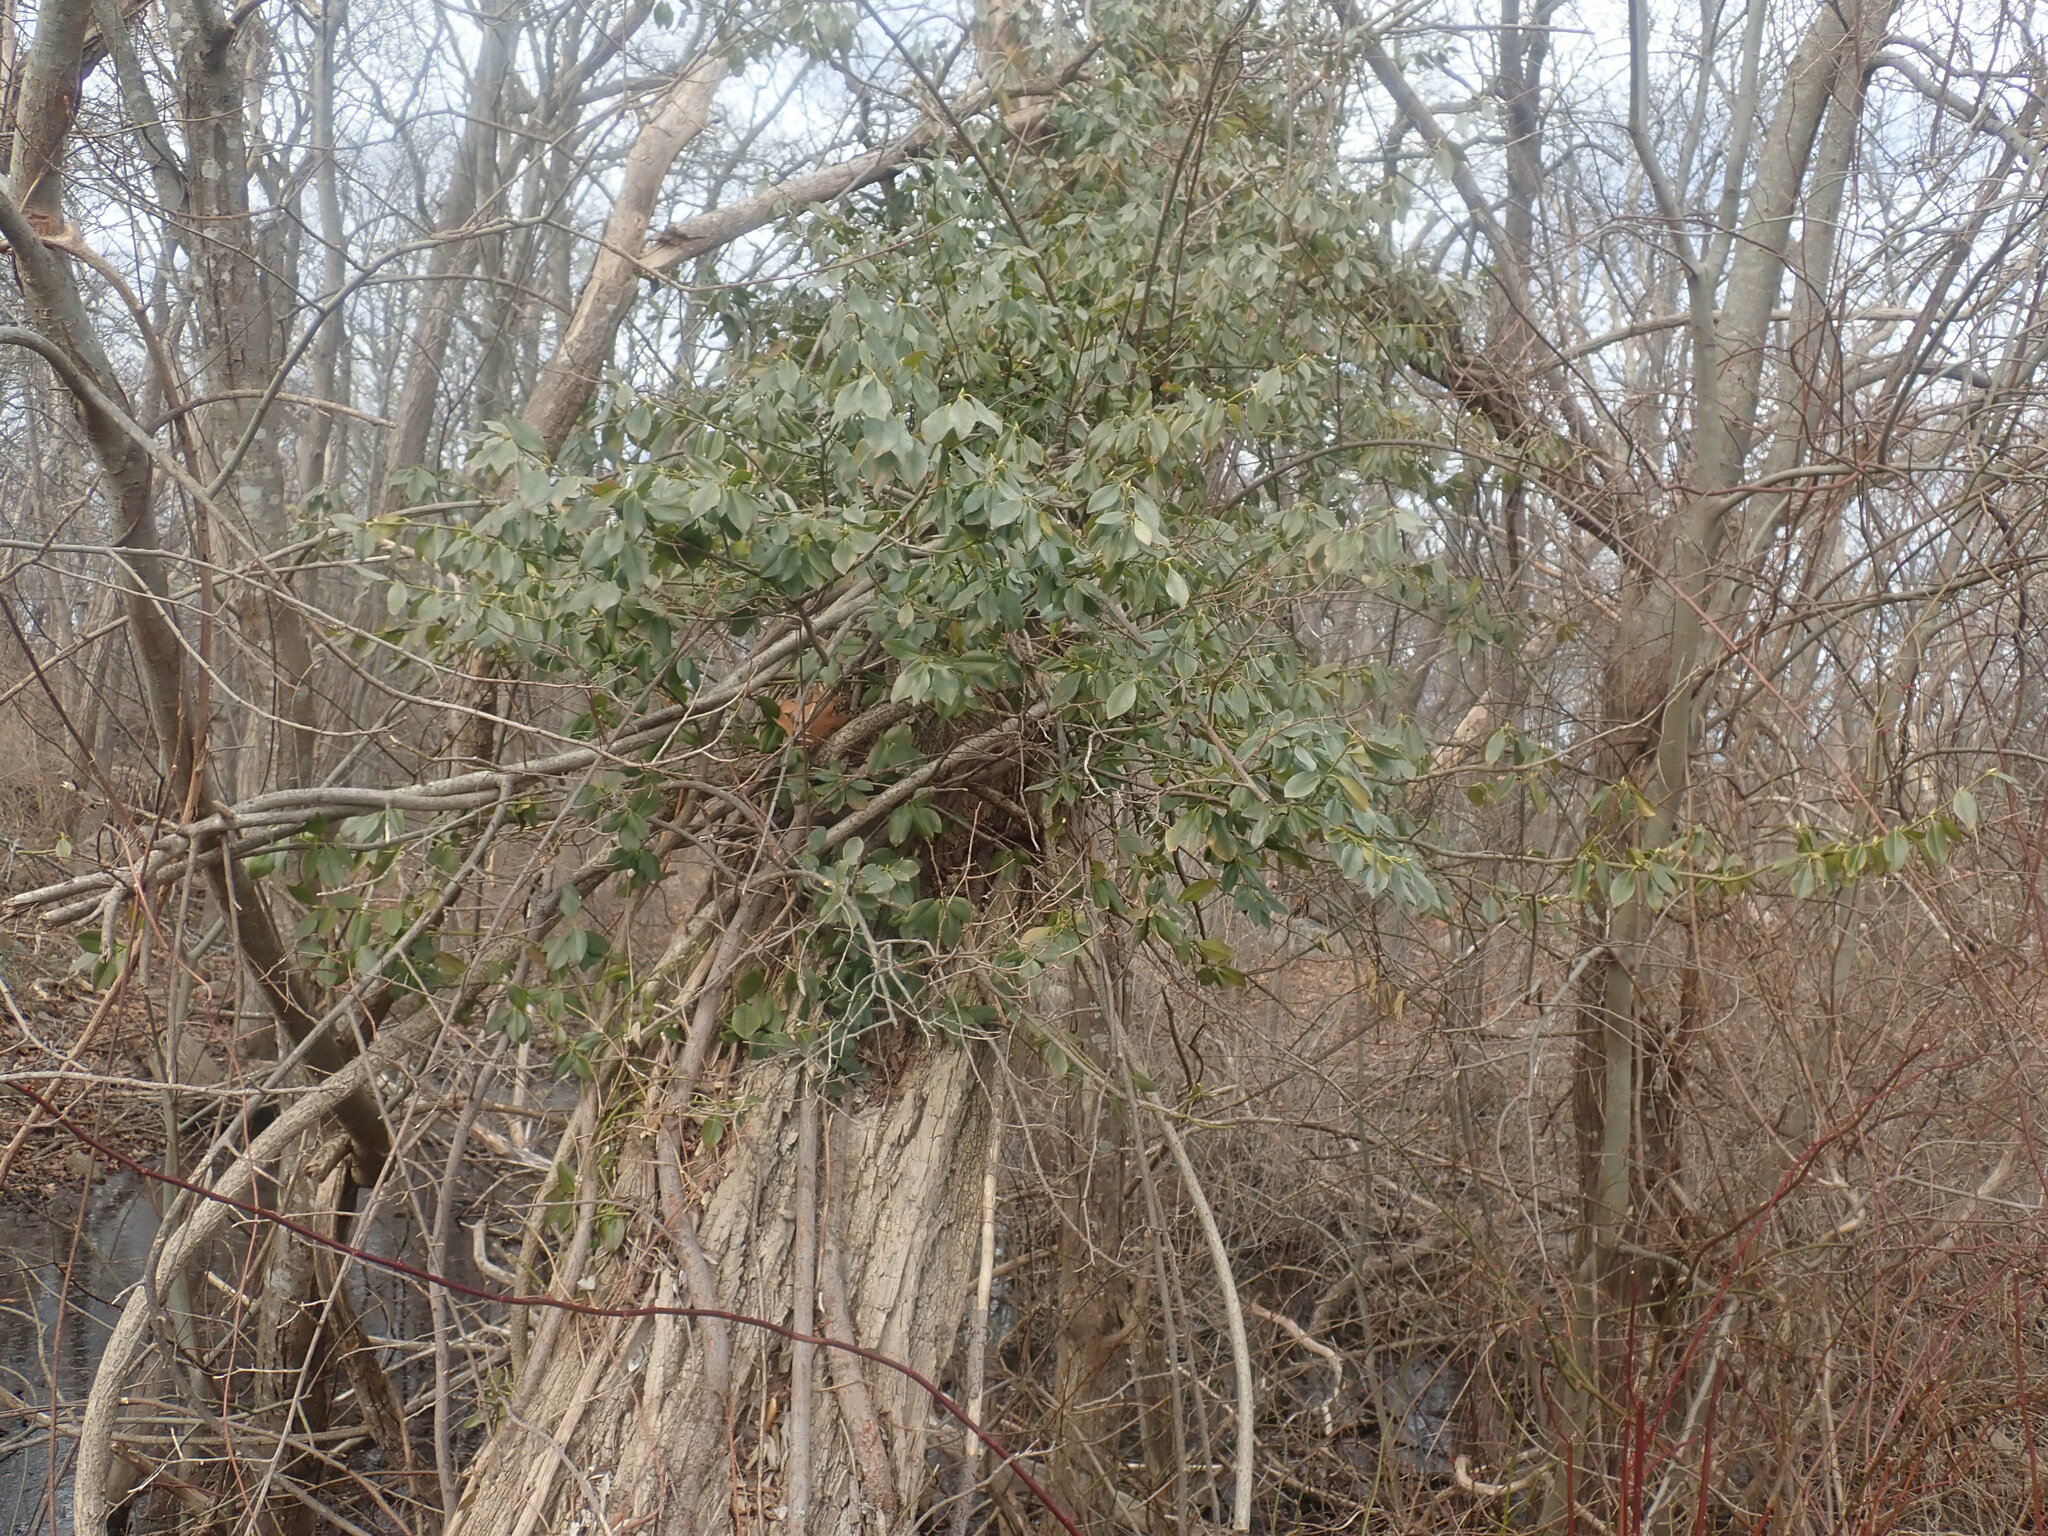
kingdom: Plantae
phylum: Tracheophyta
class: Magnoliopsida
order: Celastrales
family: Celastraceae
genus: Euonymus
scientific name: Euonymus fortunei
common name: Climbing euonymus
